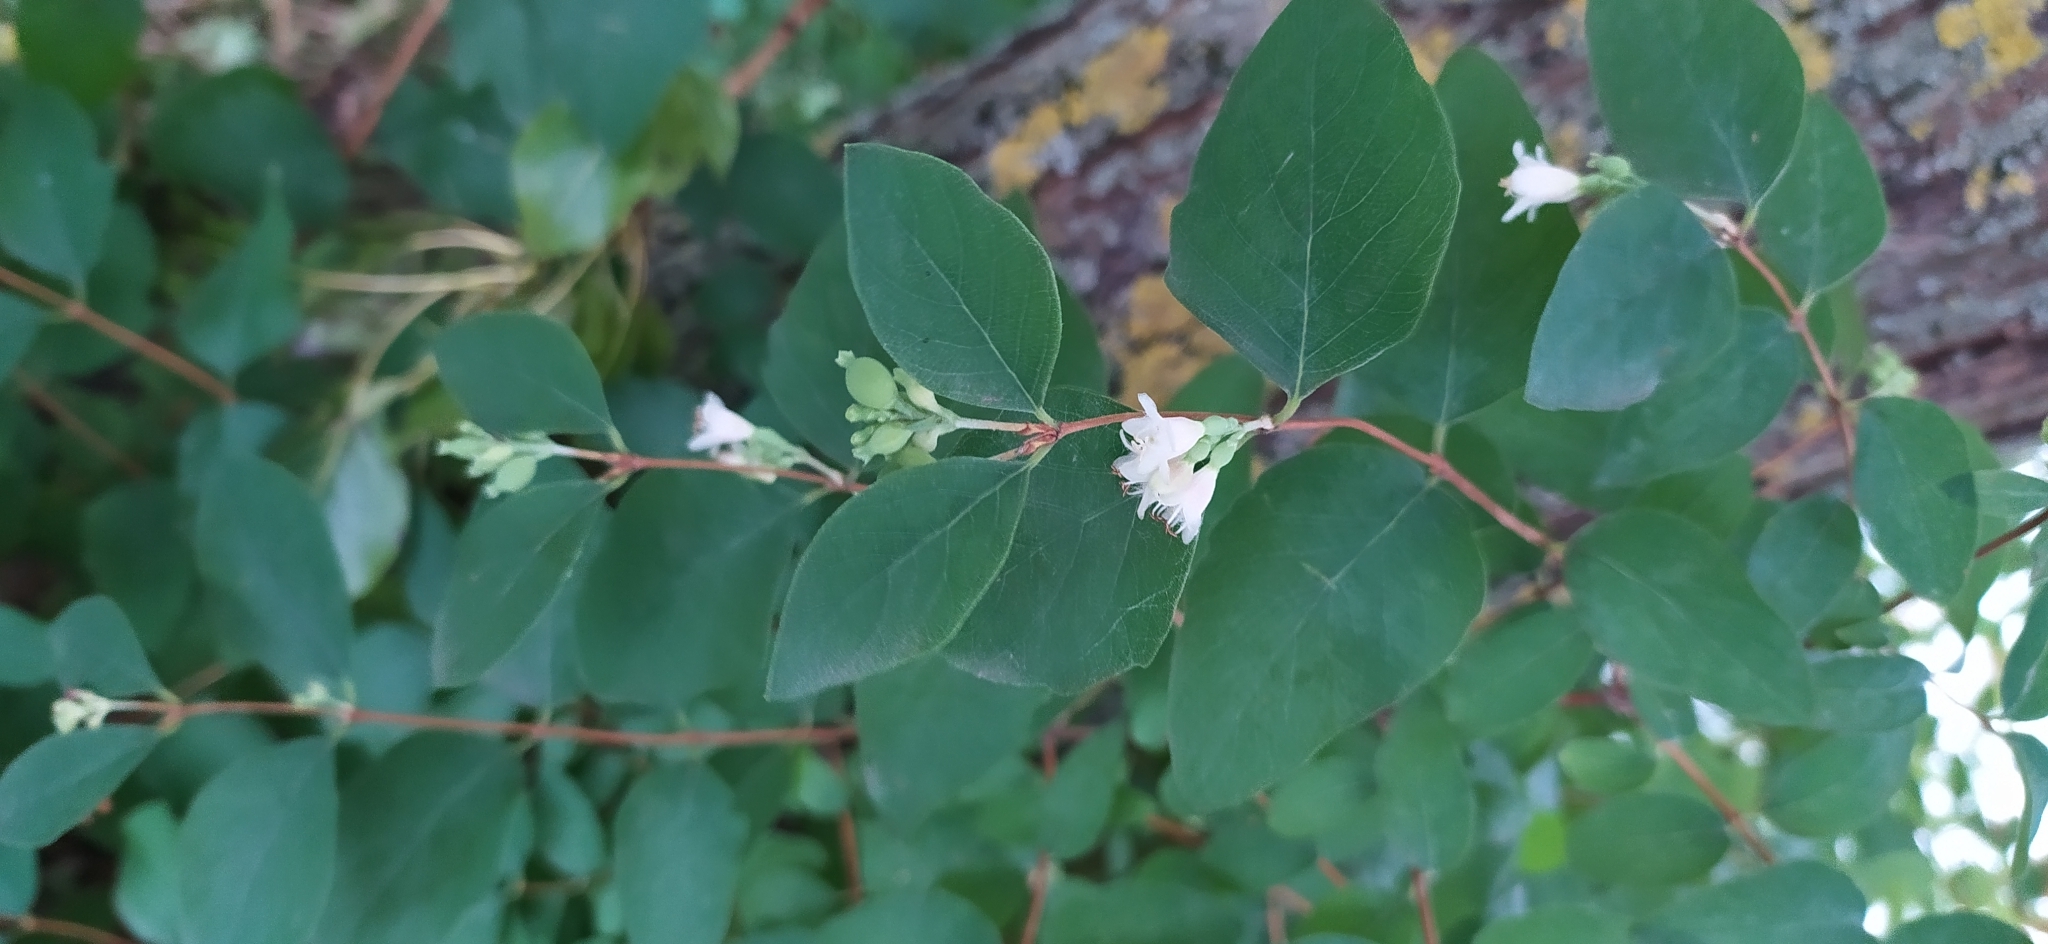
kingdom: Plantae
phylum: Tracheophyta
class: Magnoliopsida
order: Dipsacales
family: Caprifoliaceae
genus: Symphoricarpos
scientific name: Symphoricarpos albus
